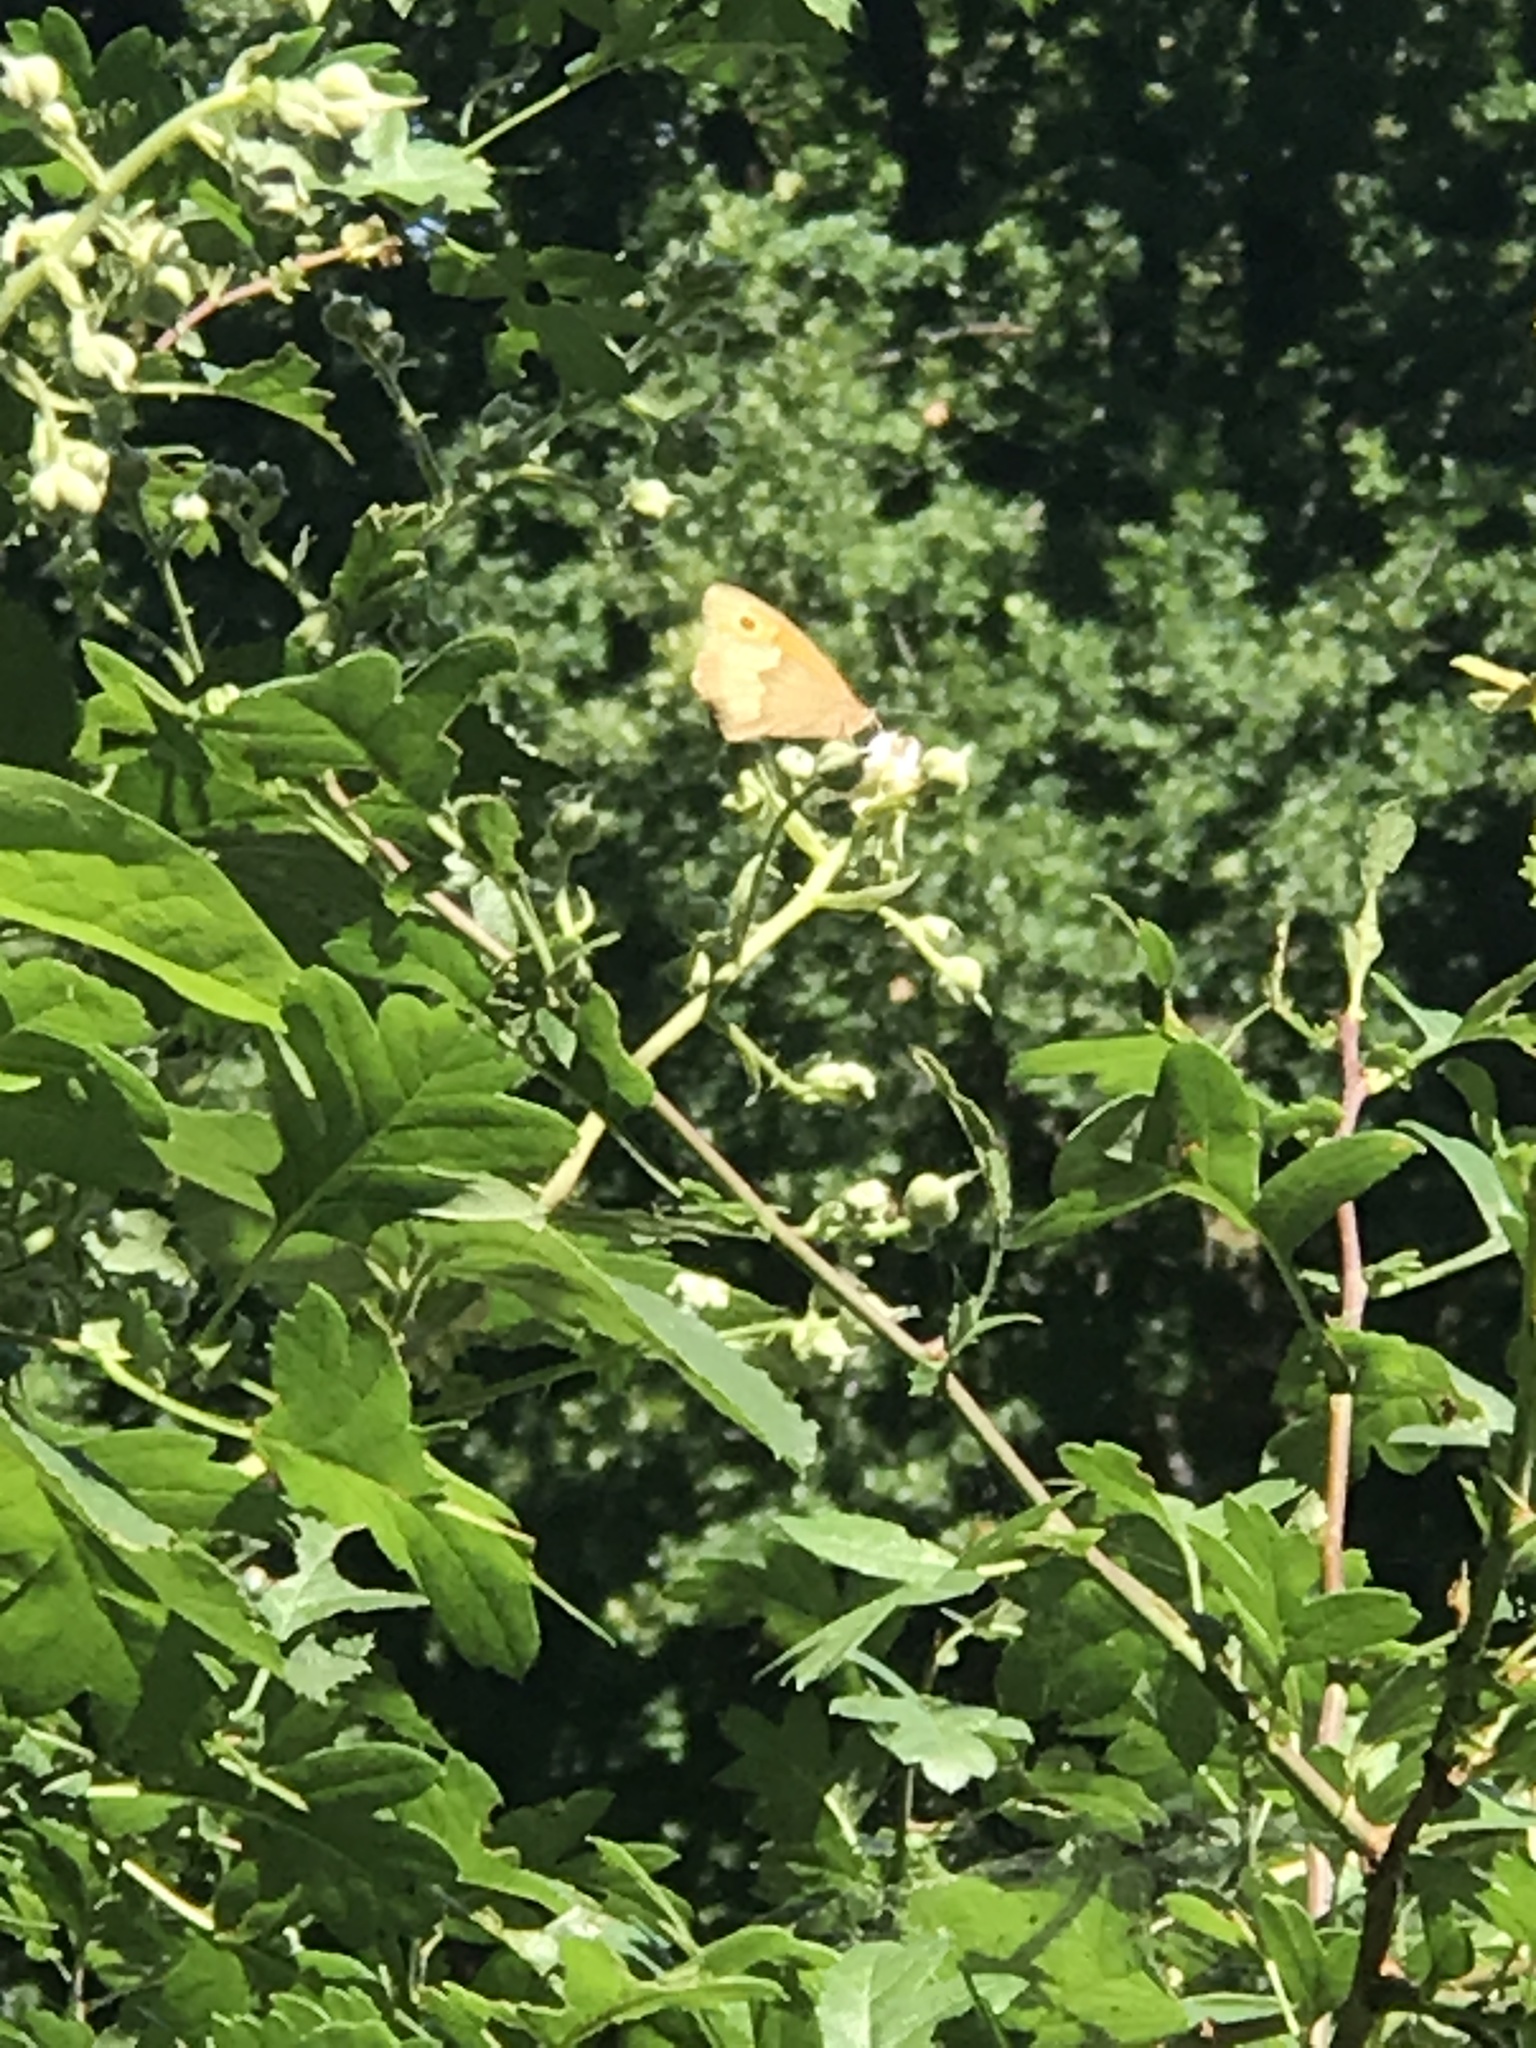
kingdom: Animalia
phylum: Arthropoda
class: Insecta
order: Lepidoptera
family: Nymphalidae
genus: Maniola
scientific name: Maniola jurtina
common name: Meadow brown
